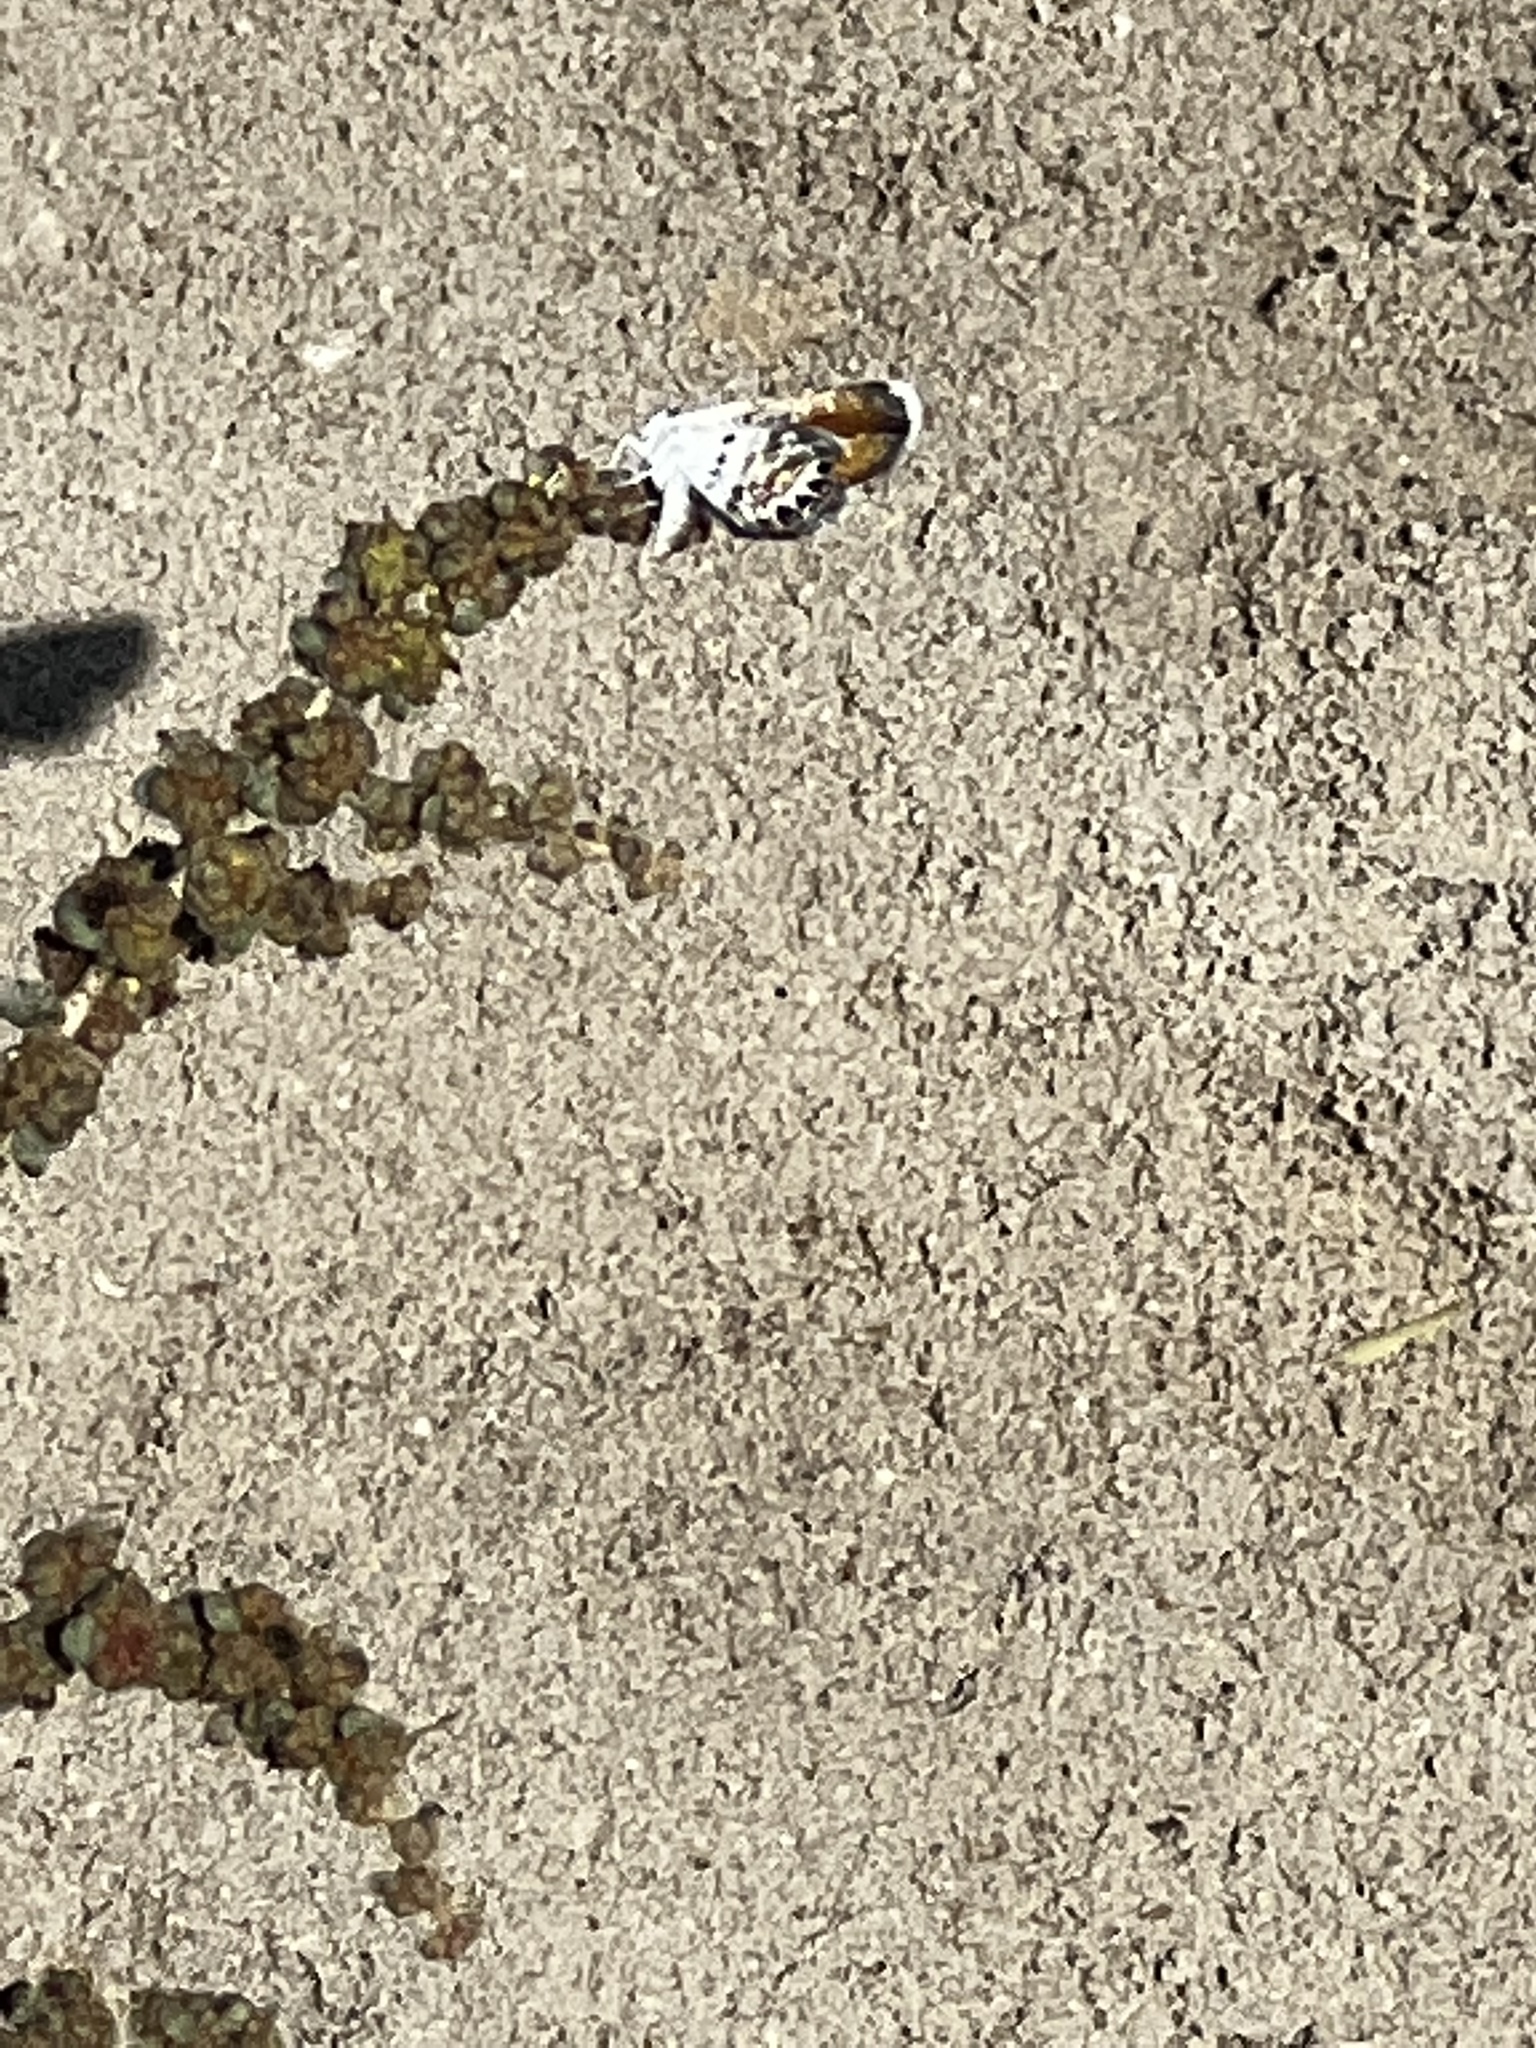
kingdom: Animalia
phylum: Arthropoda
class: Insecta
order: Lepidoptera
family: Lycaenidae
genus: Brephidium
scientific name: Brephidium exilis
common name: Pygmy blue
